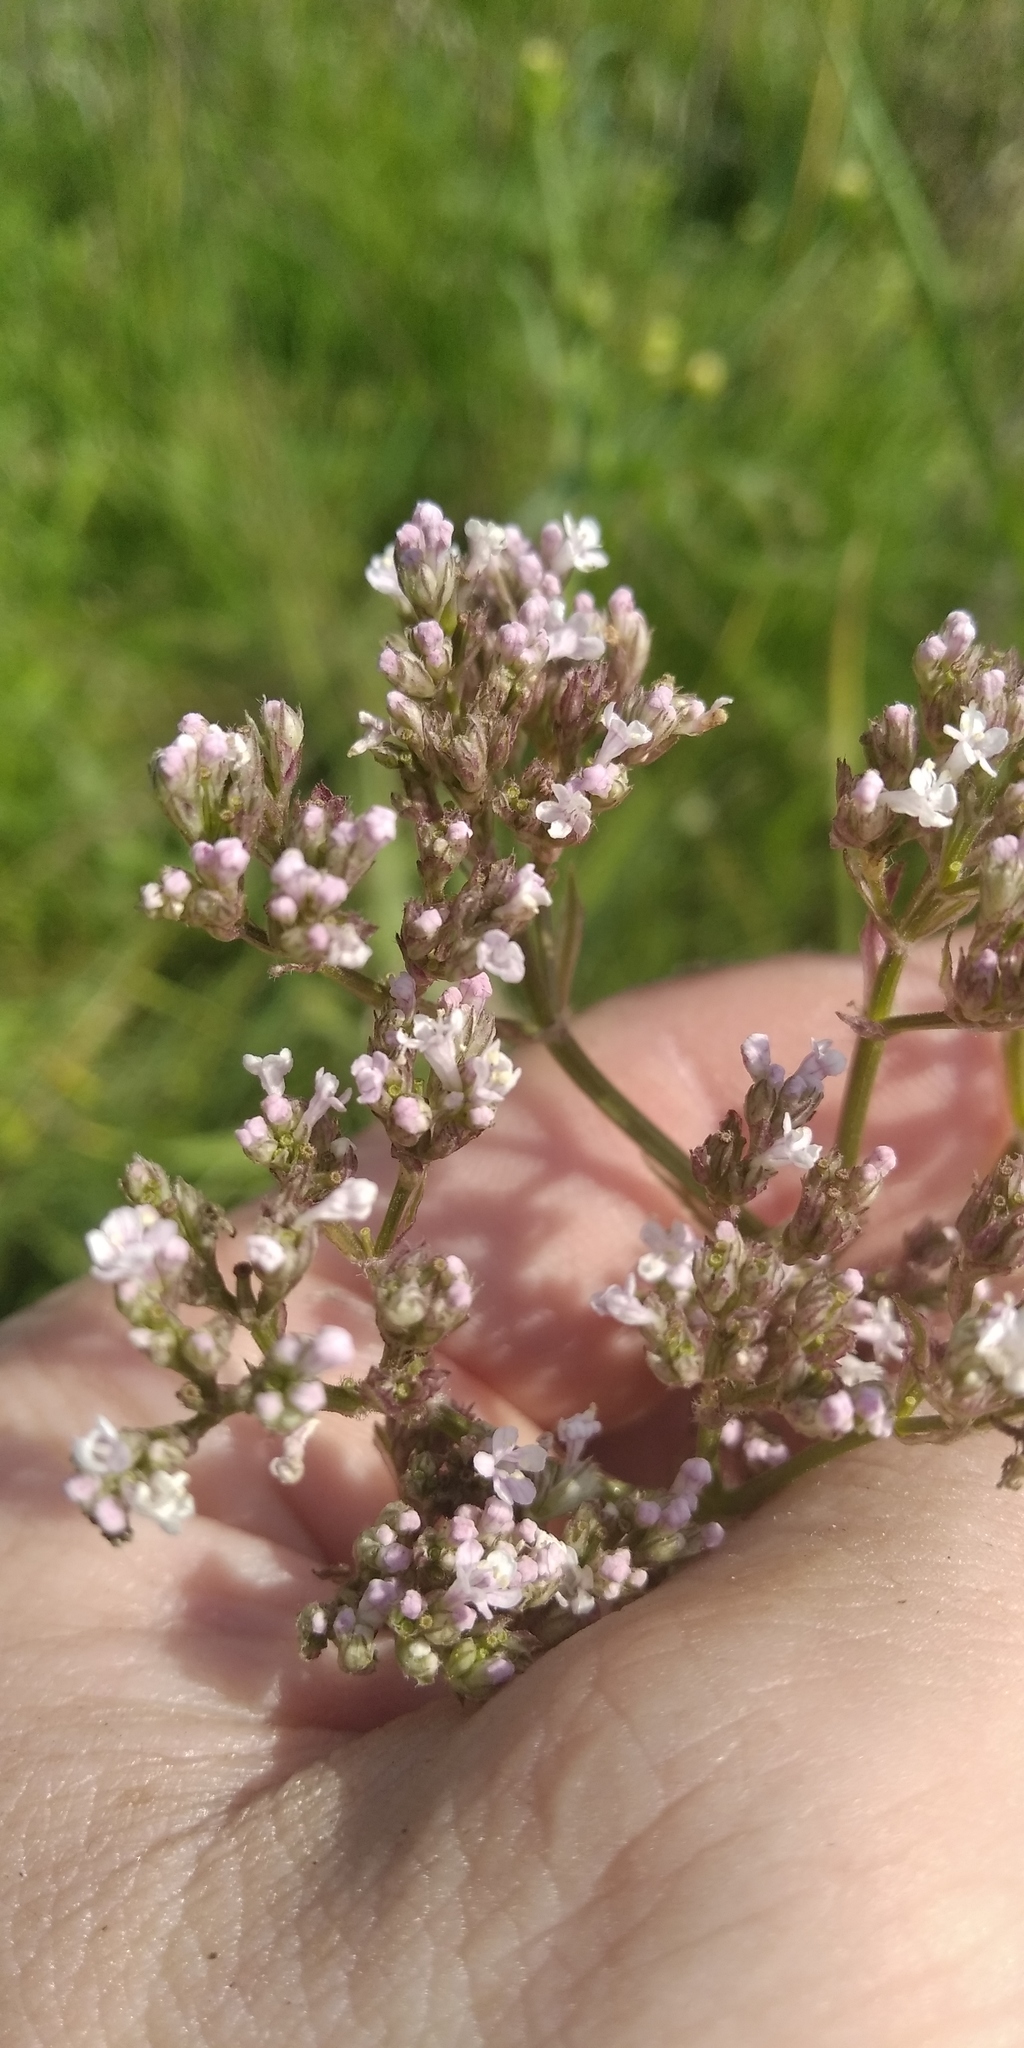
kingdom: Plantae
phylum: Tracheophyta
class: Magnoliopsida
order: Dipsacales
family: Caprifoliaceae
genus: Valeriana
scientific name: Valeriana officinalis
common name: Common valerian
